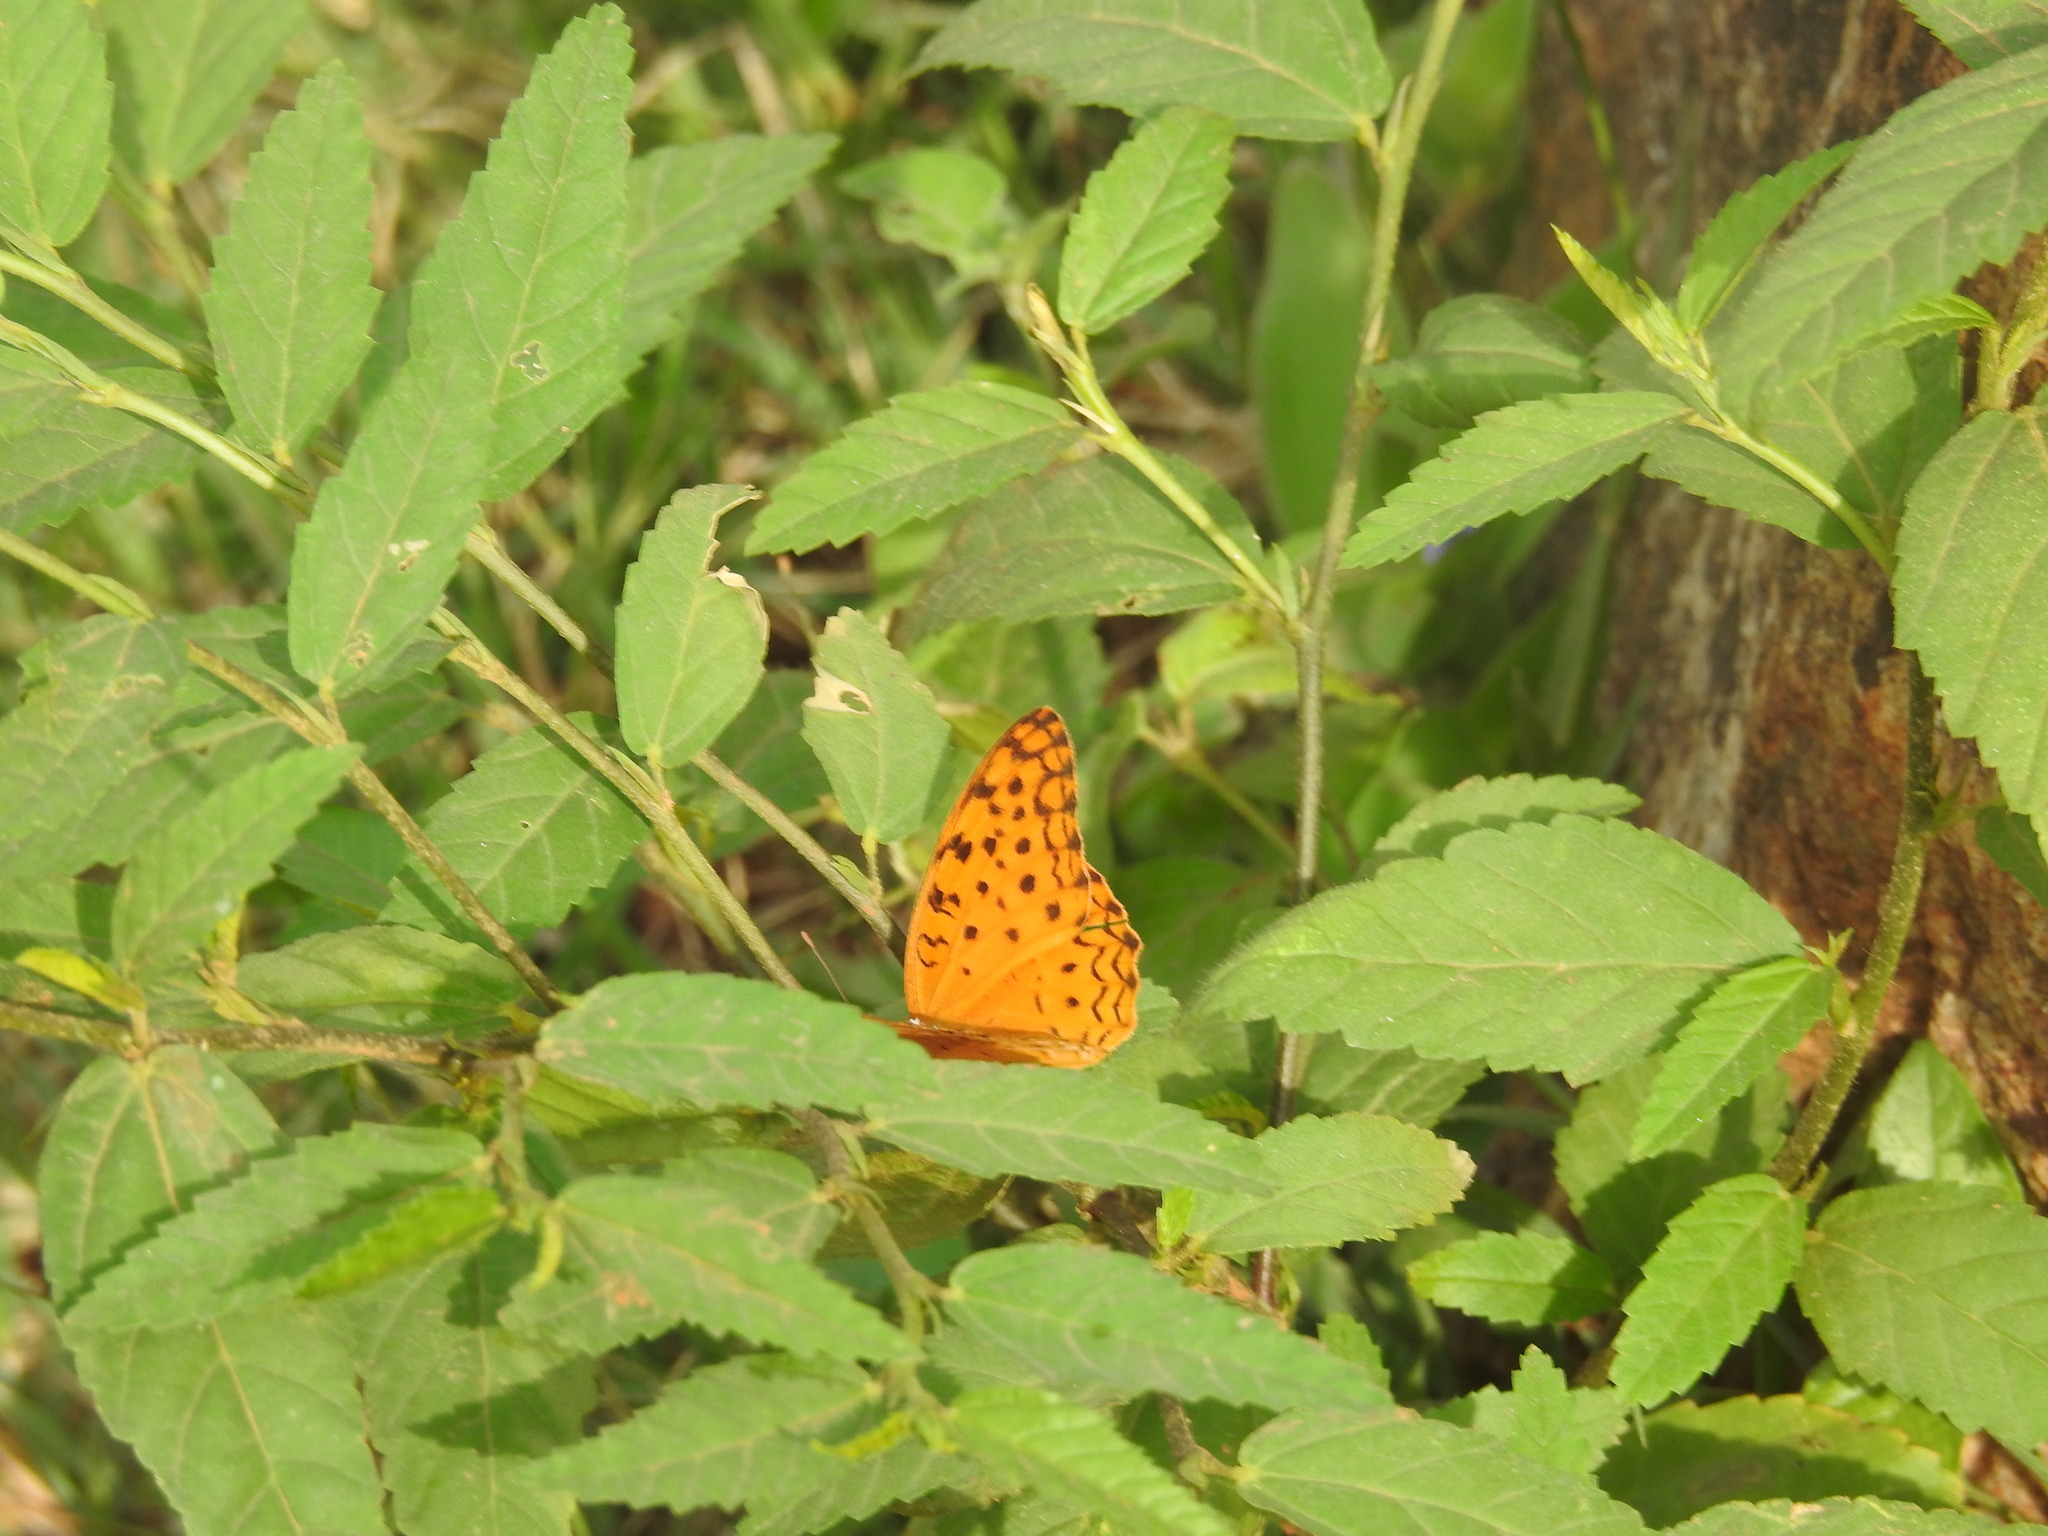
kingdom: Animalia
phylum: Arthropoda
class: Insecta
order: Lepidoptera
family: Nymphalidae
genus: Phalanta
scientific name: Phalanta phalantha
